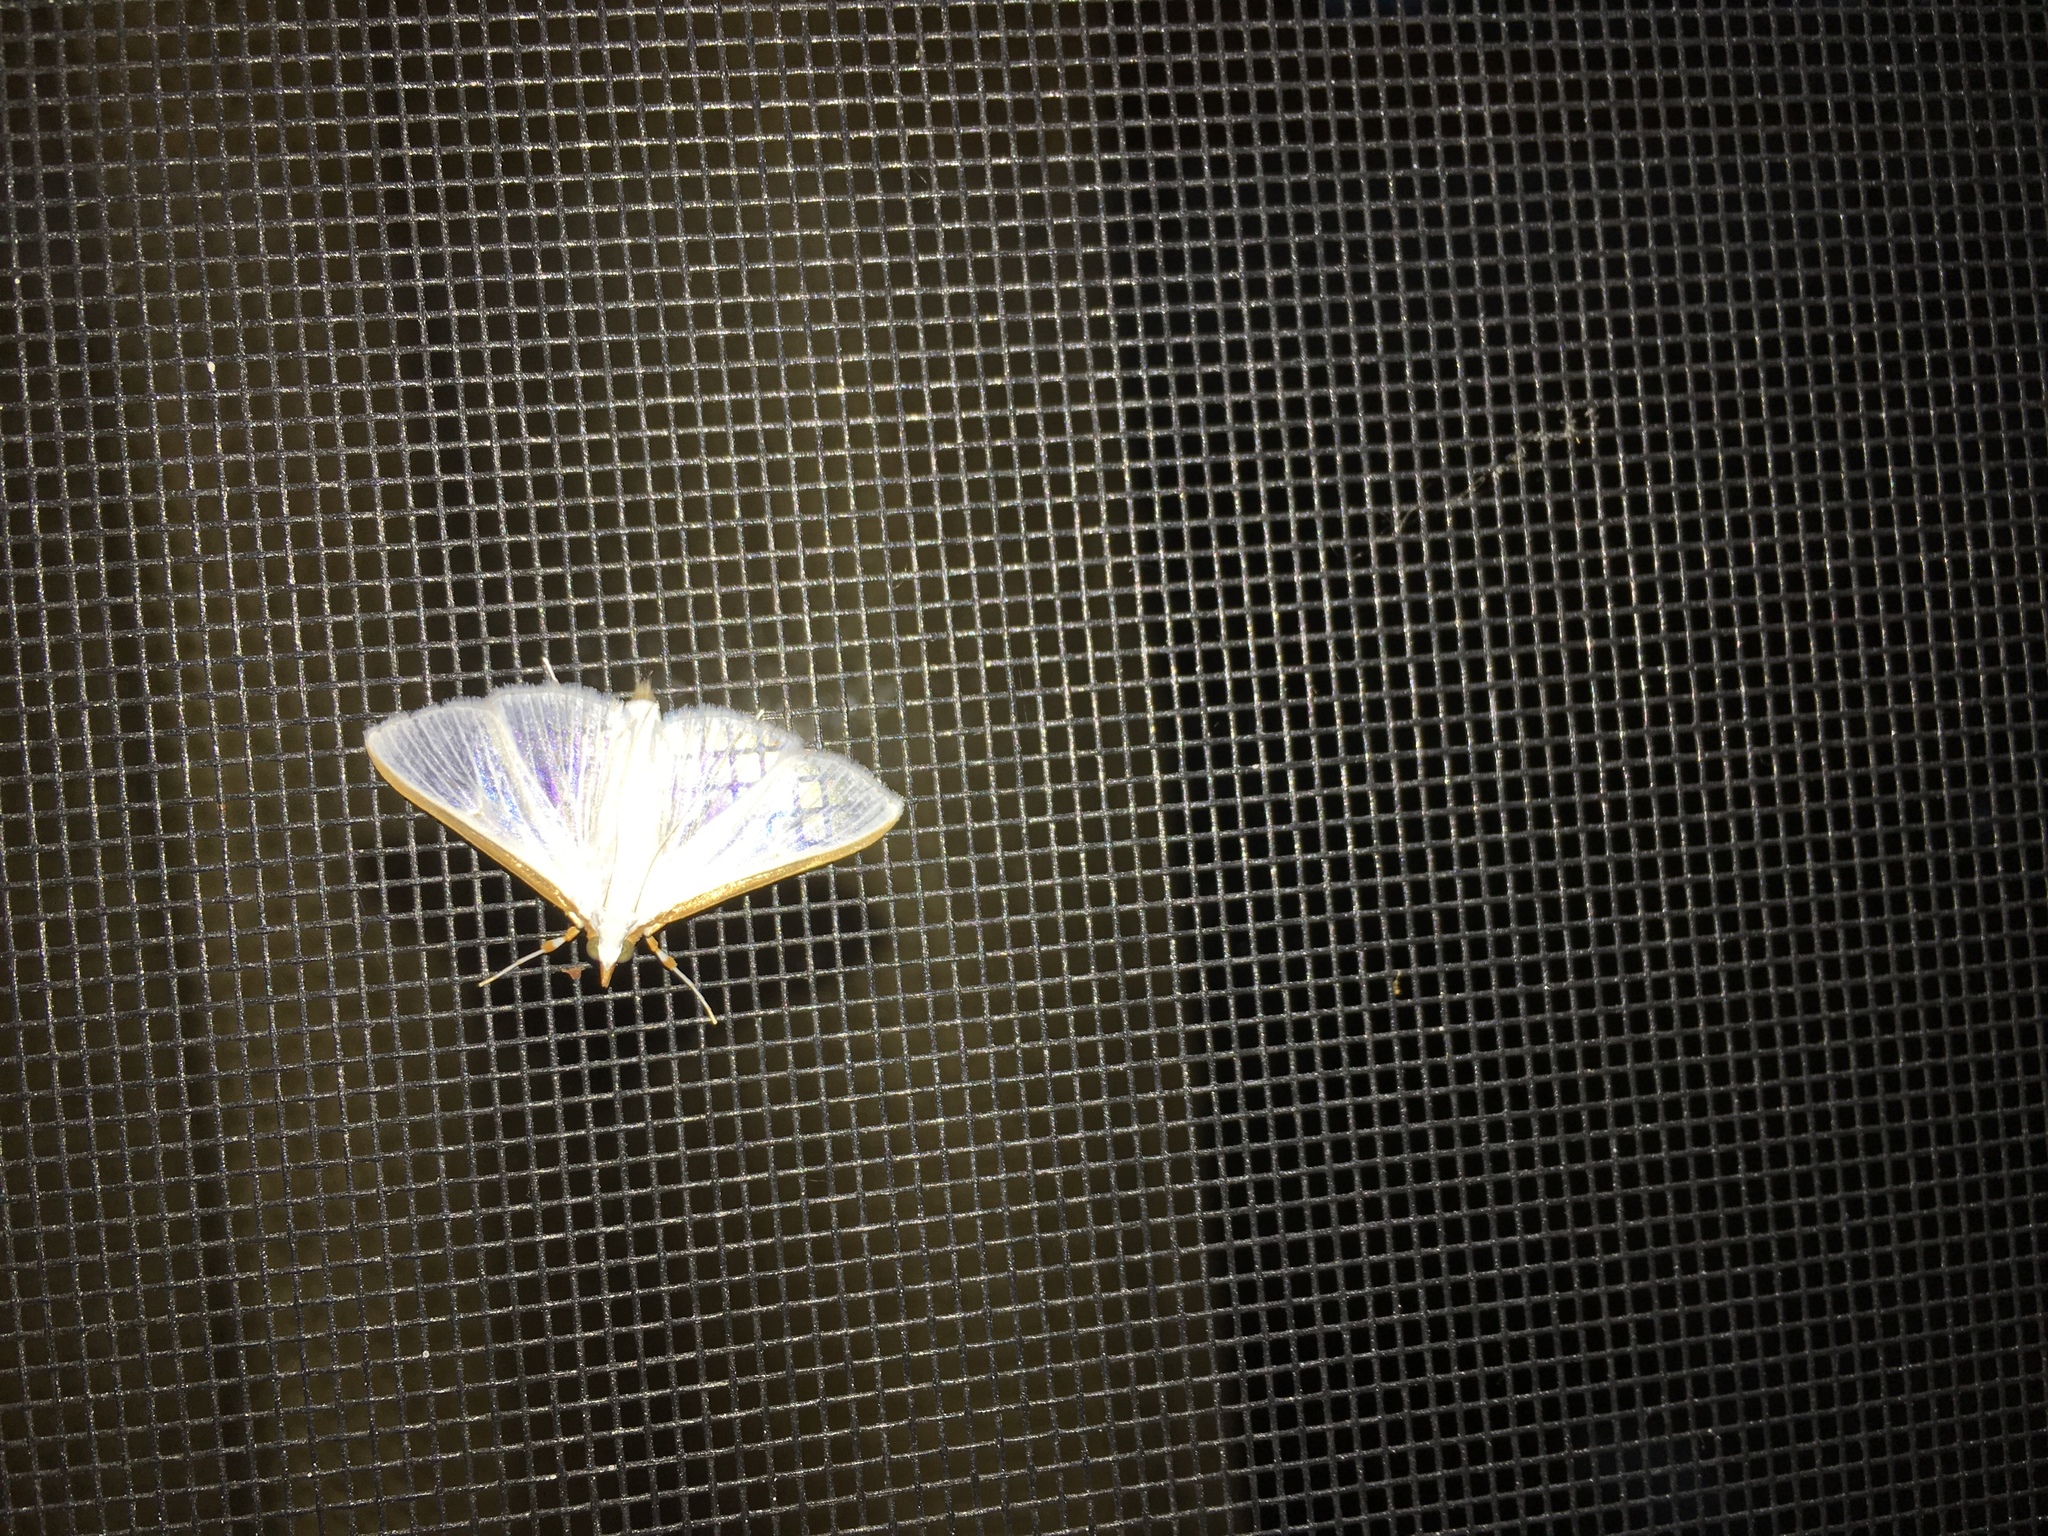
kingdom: Animalia
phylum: Arthropoda
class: Insecta
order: Lepidoptera
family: Crambidae
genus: Diaphania
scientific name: Diaphania costata
